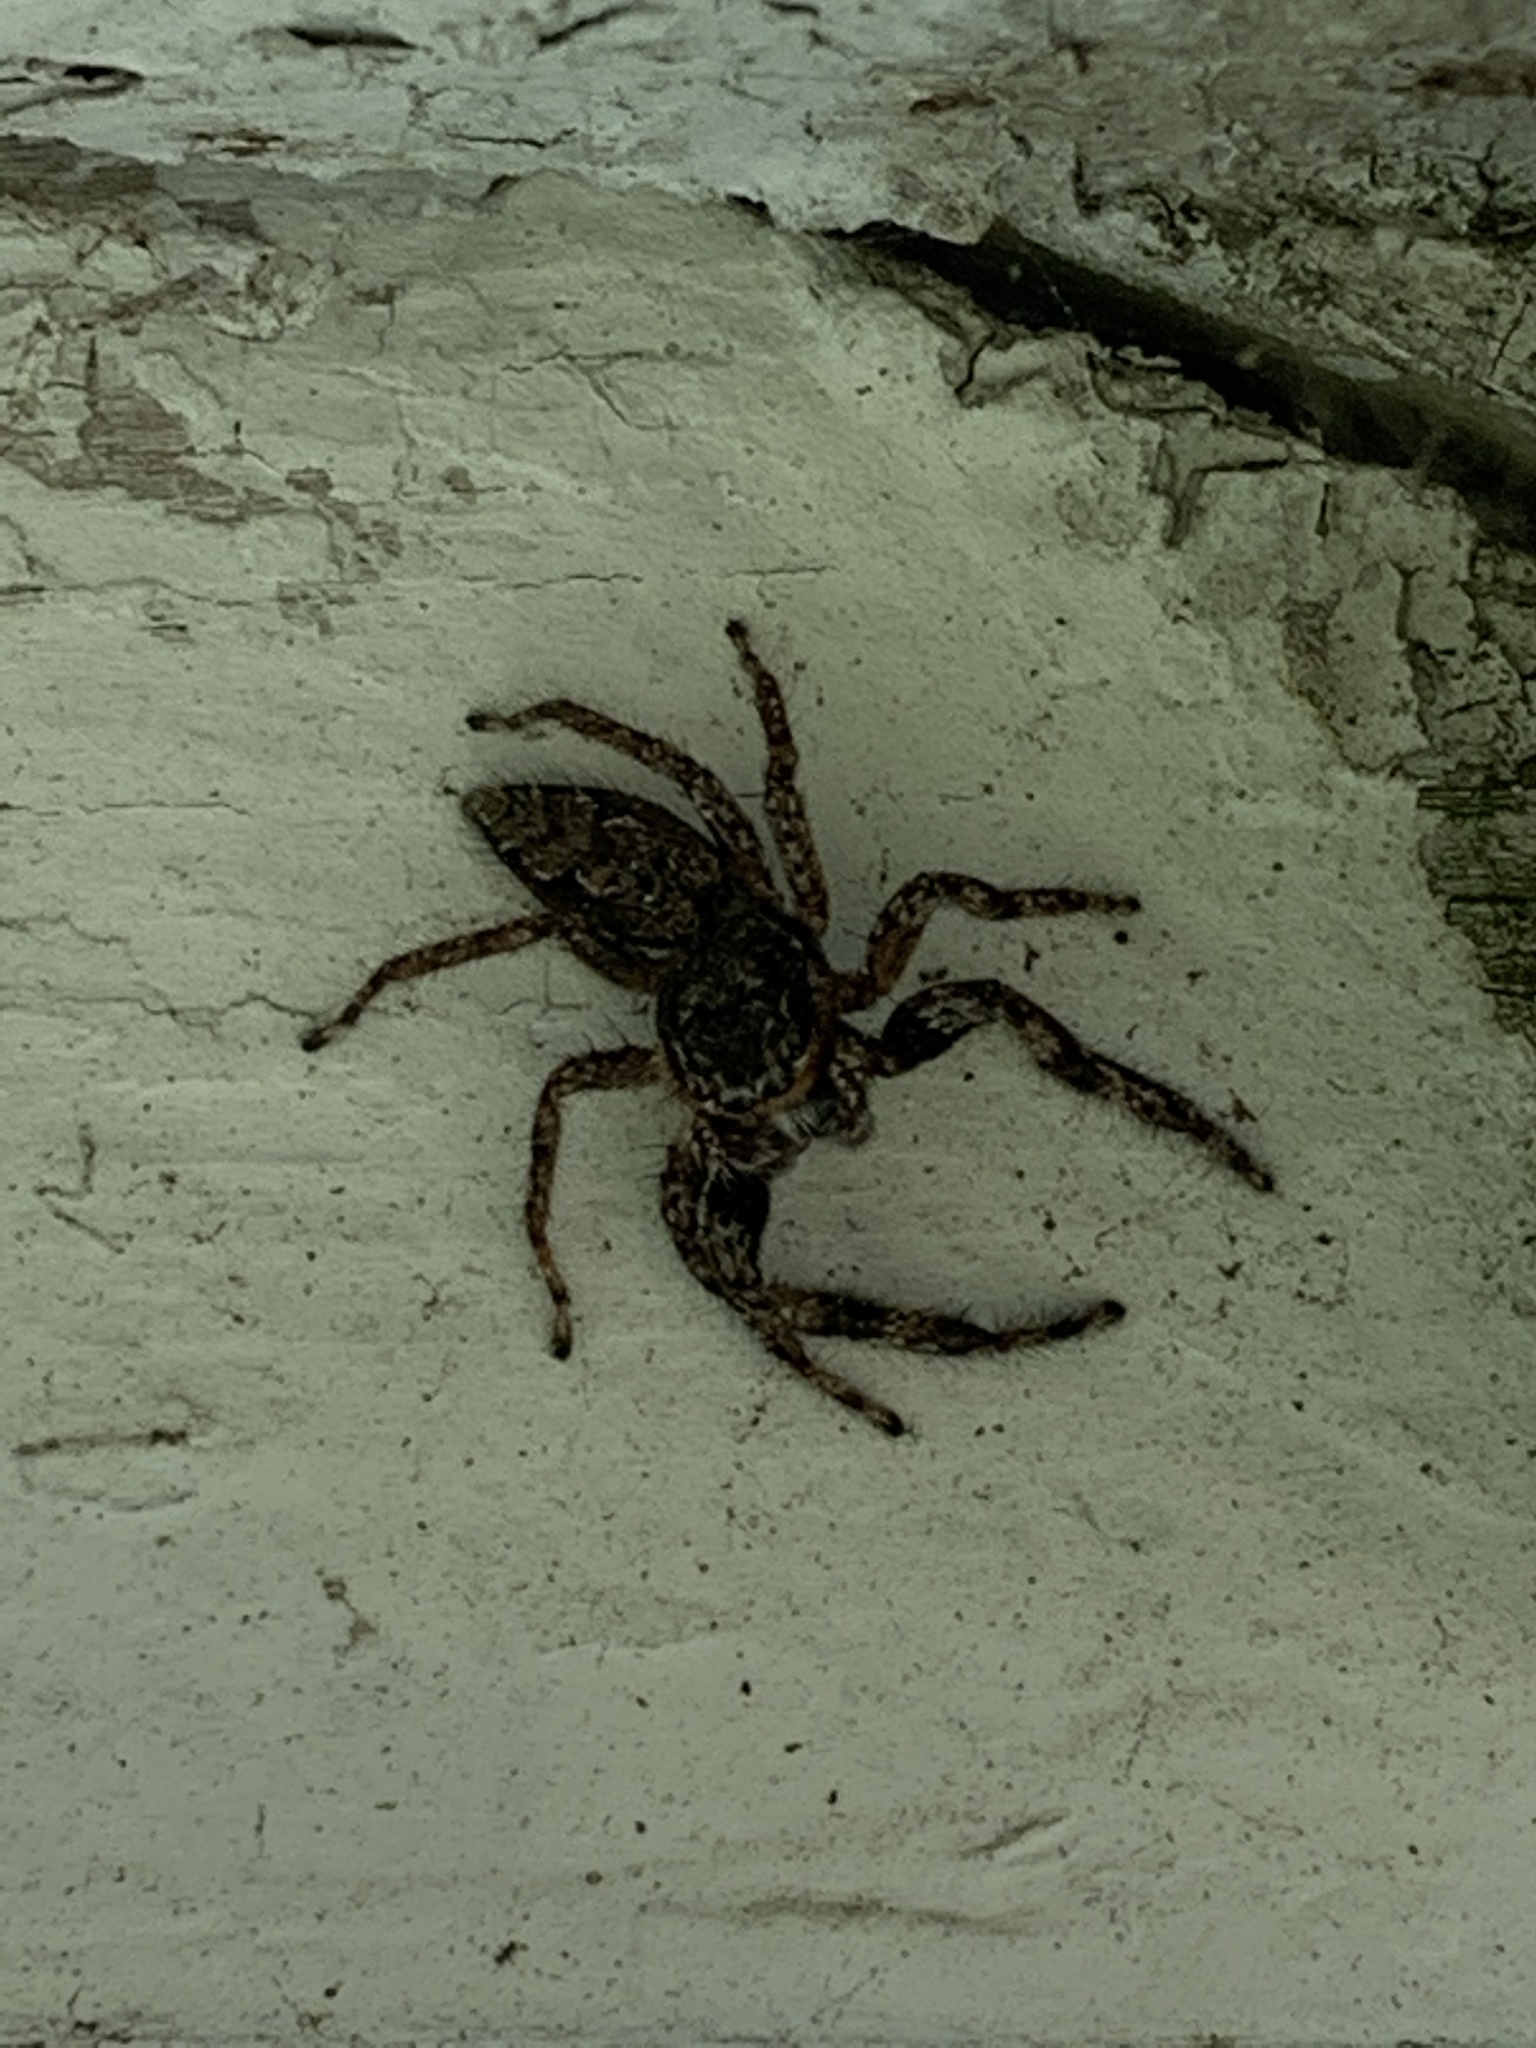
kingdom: Animalia
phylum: Arthropoda
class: Arachnida
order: Araneae
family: Salticidae
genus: Platycryptus
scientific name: Platycryptus undatus
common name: Tan jumping spider
